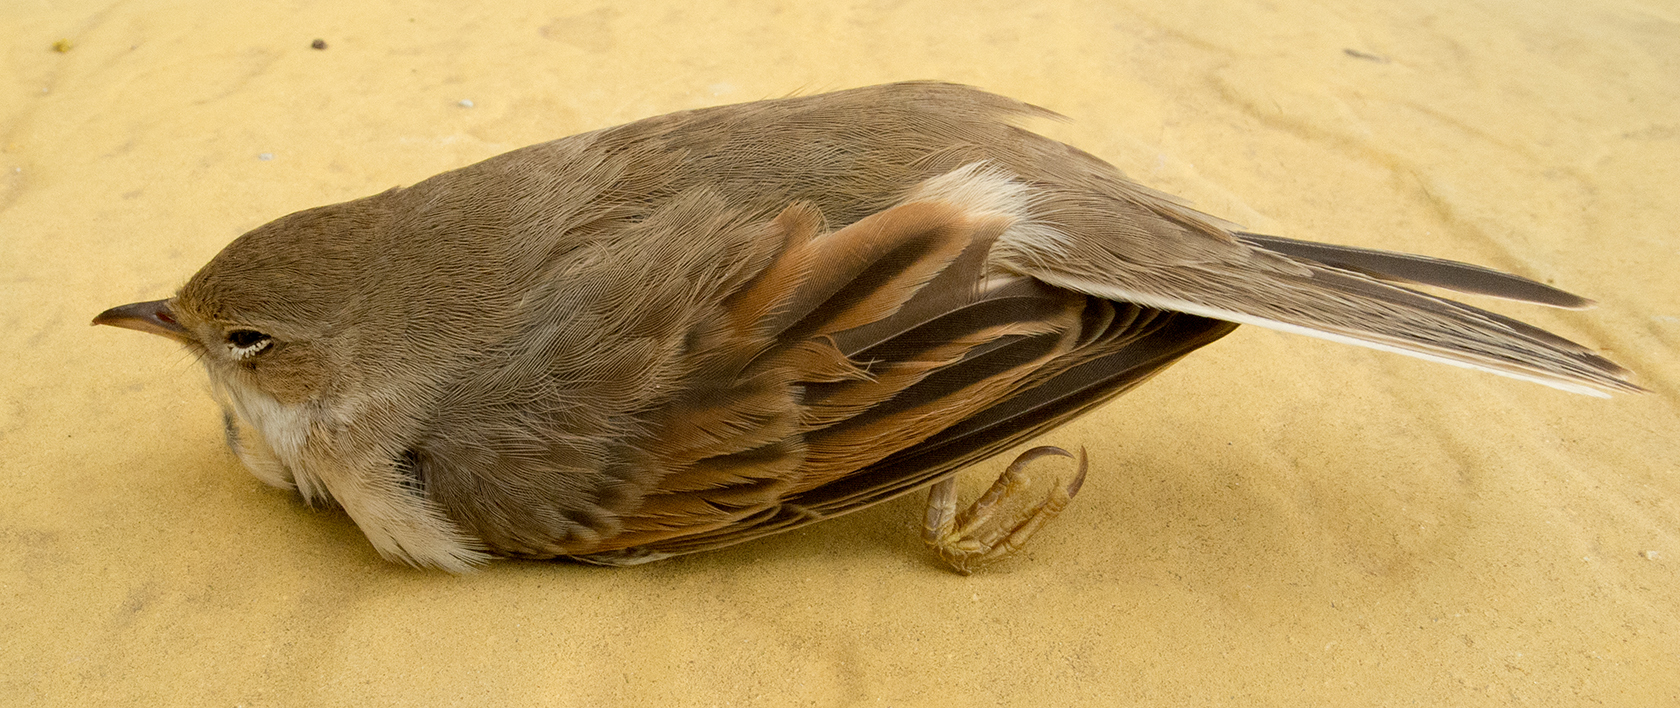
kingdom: Animalia
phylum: Chordata
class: Aves
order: Passeriformes
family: Sylviidae
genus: Sylvia
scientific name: Sylvia communis
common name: Common whitethroat
